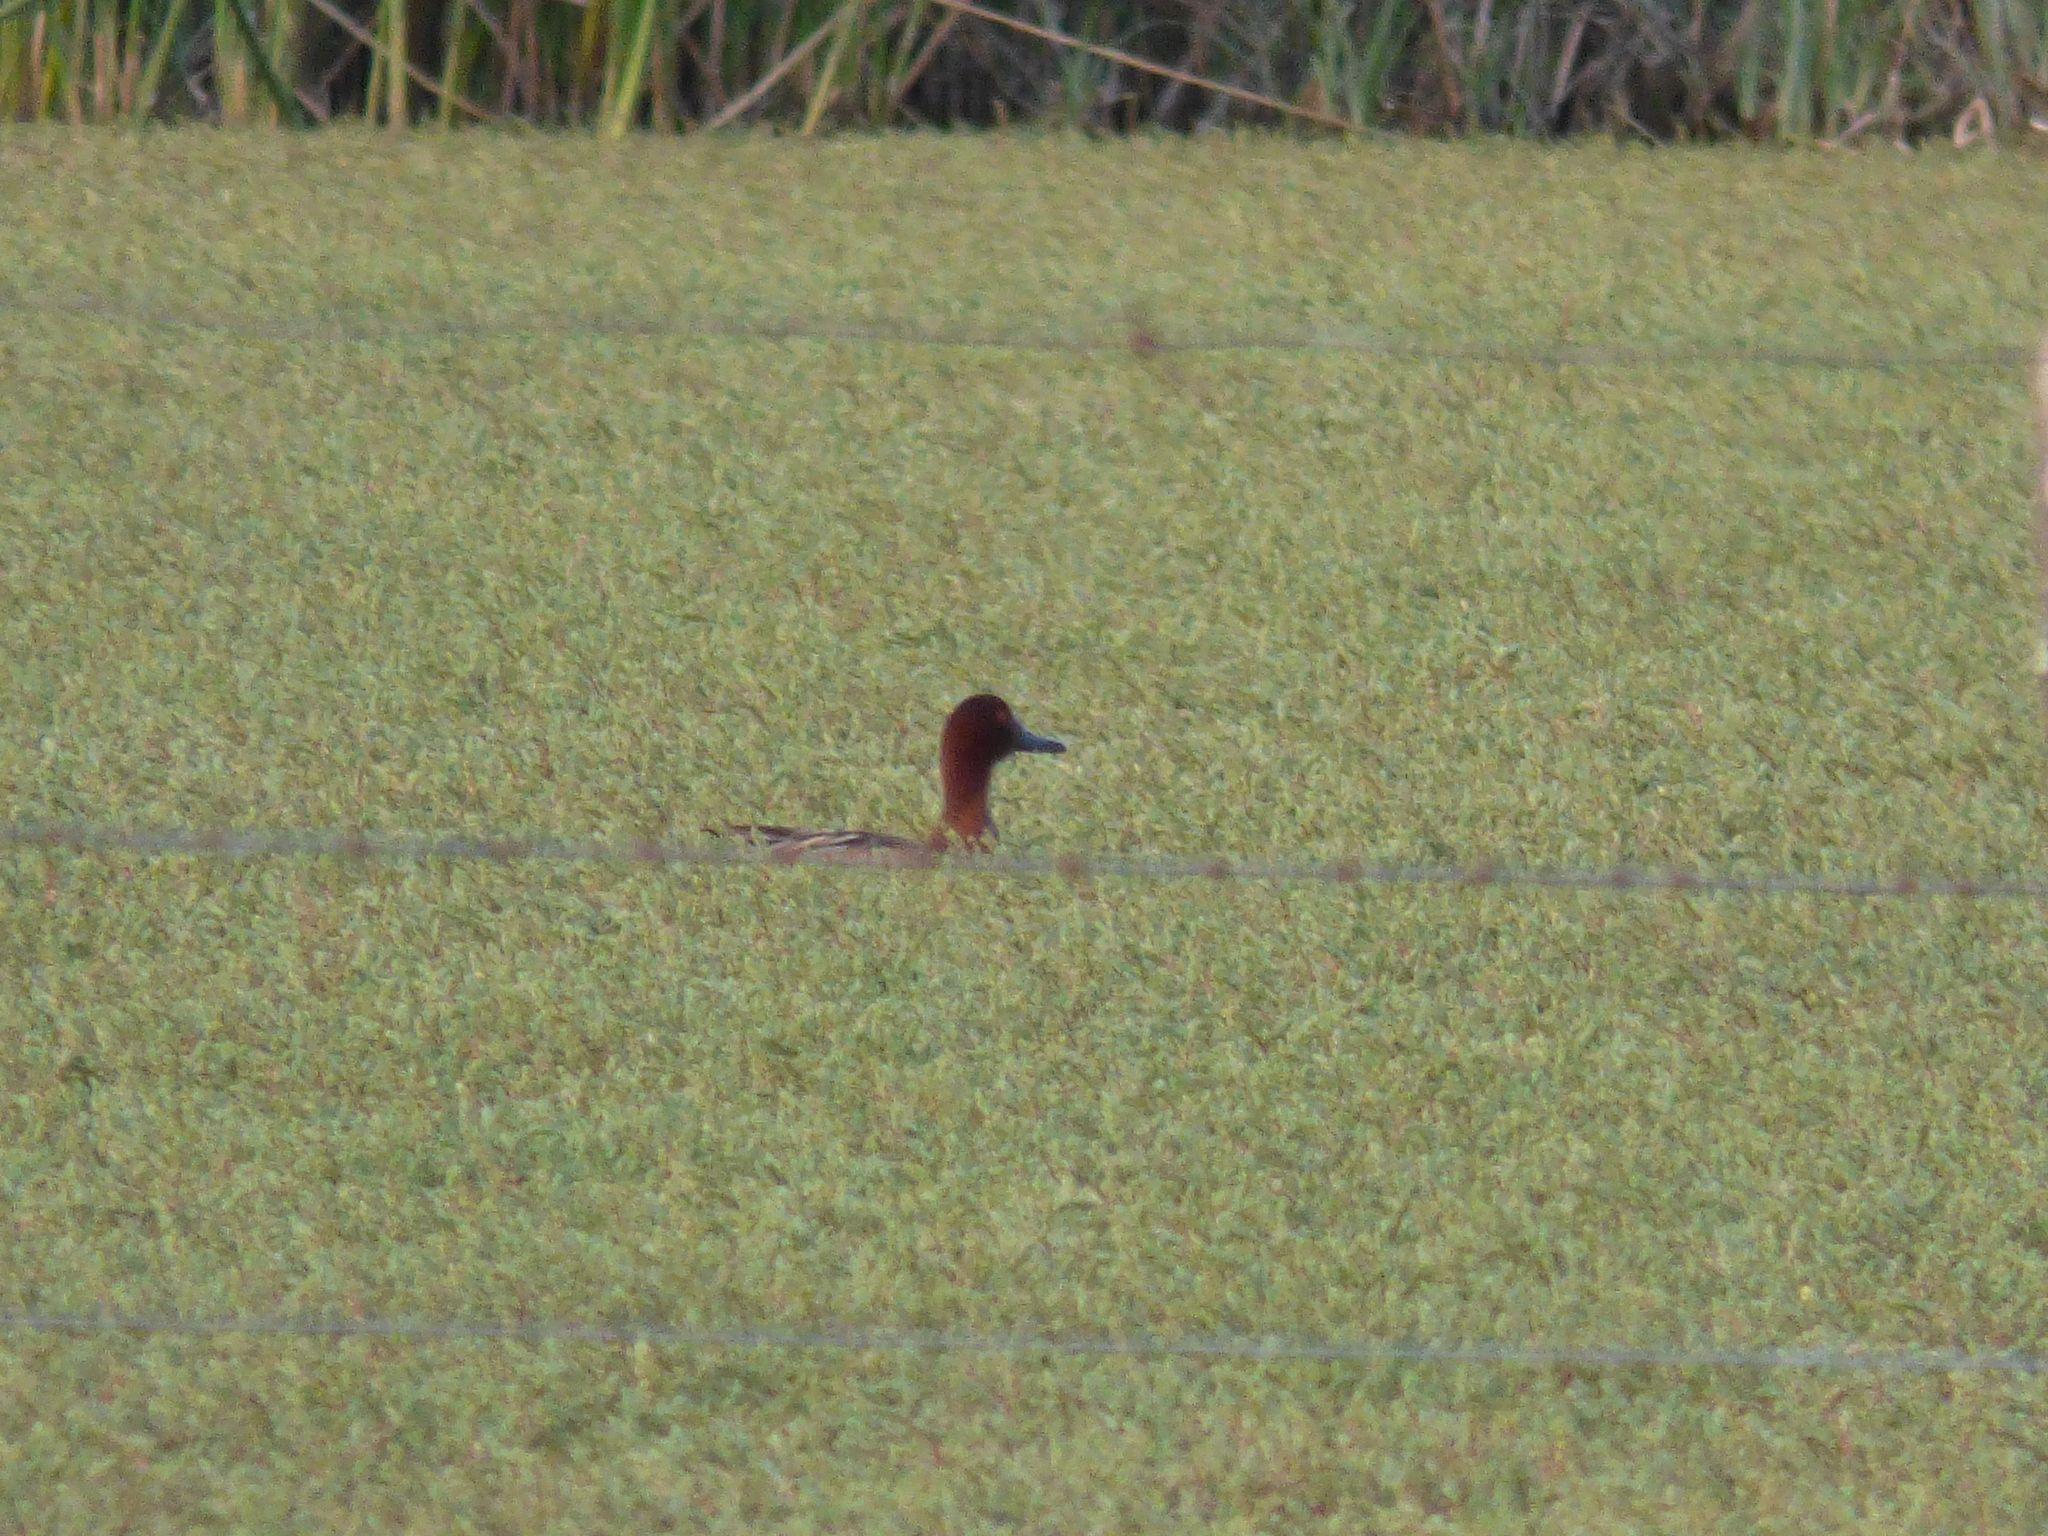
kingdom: Animalia
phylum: Chordata
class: Aves
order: Anseriformes
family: Anatidae
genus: Spatula
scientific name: Spatula cyanoptera
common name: Cinnamon teal
